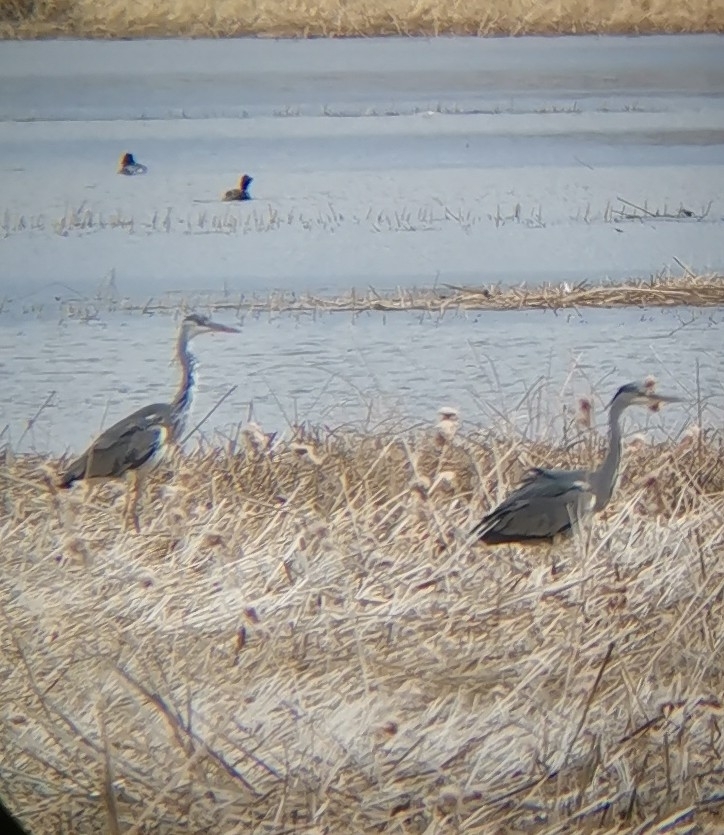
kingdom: Animalia
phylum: Chordata
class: Aves
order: Pelecaniformes
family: Ardeidae
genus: Ardea
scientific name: Ardea cinerea
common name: Grey heron
